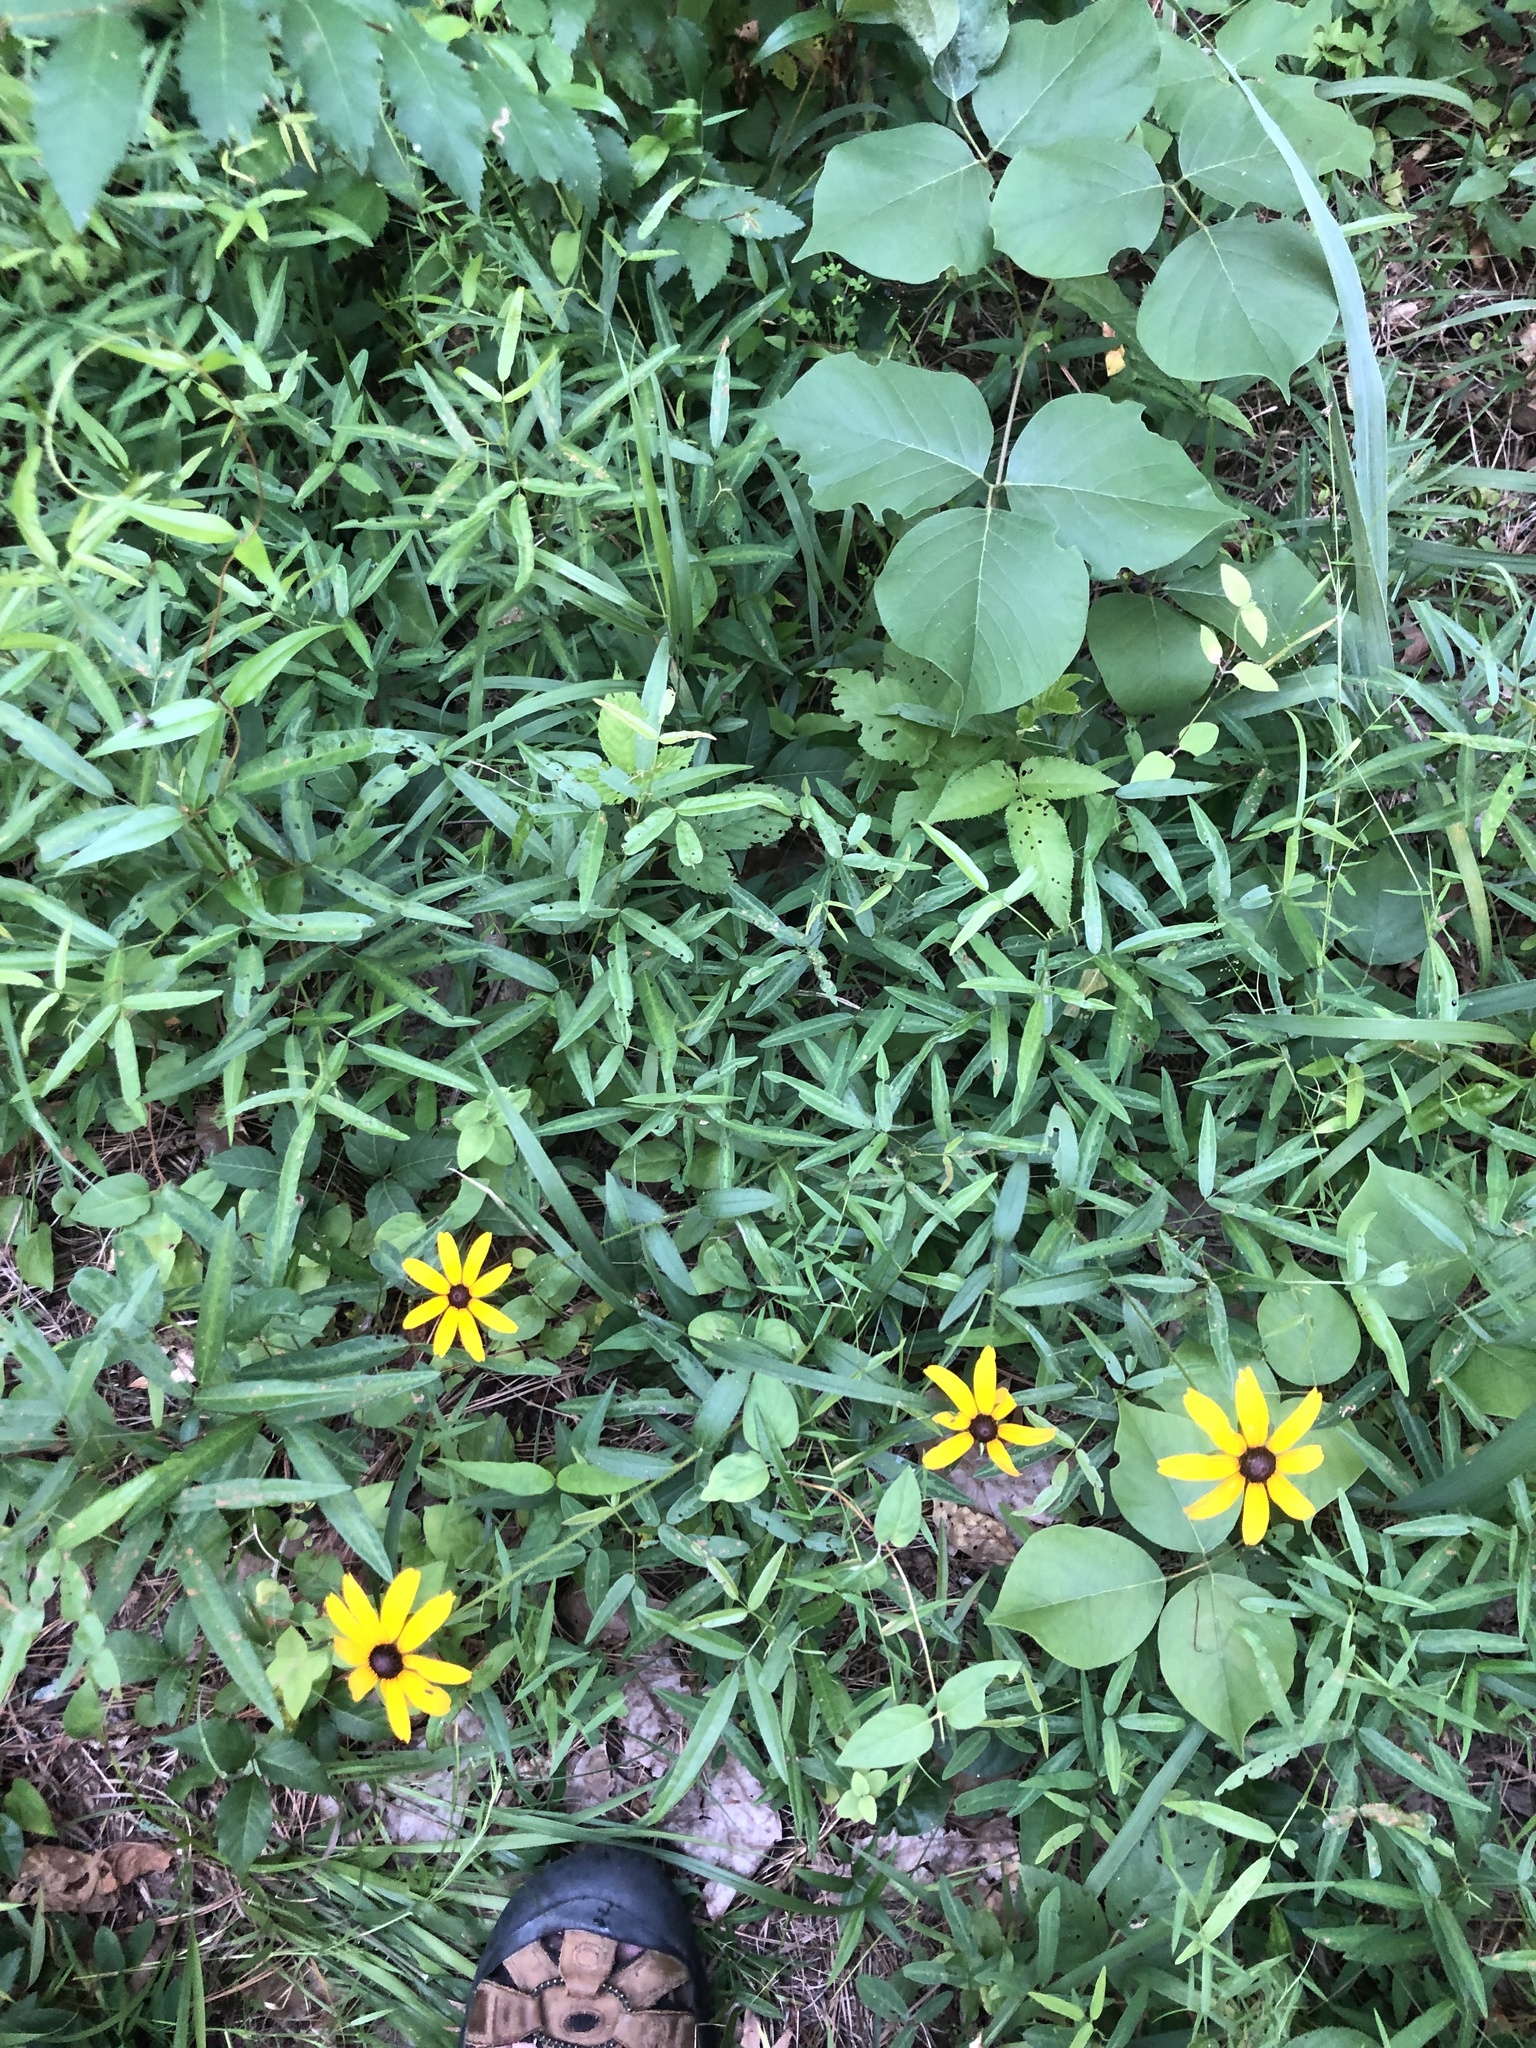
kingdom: Plantae
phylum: Tracheophyta
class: Magnoliopsida
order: Fabales
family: Fabaceae
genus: Desmodium
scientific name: Desmodium paniculatum
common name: Panicled tick-clover
